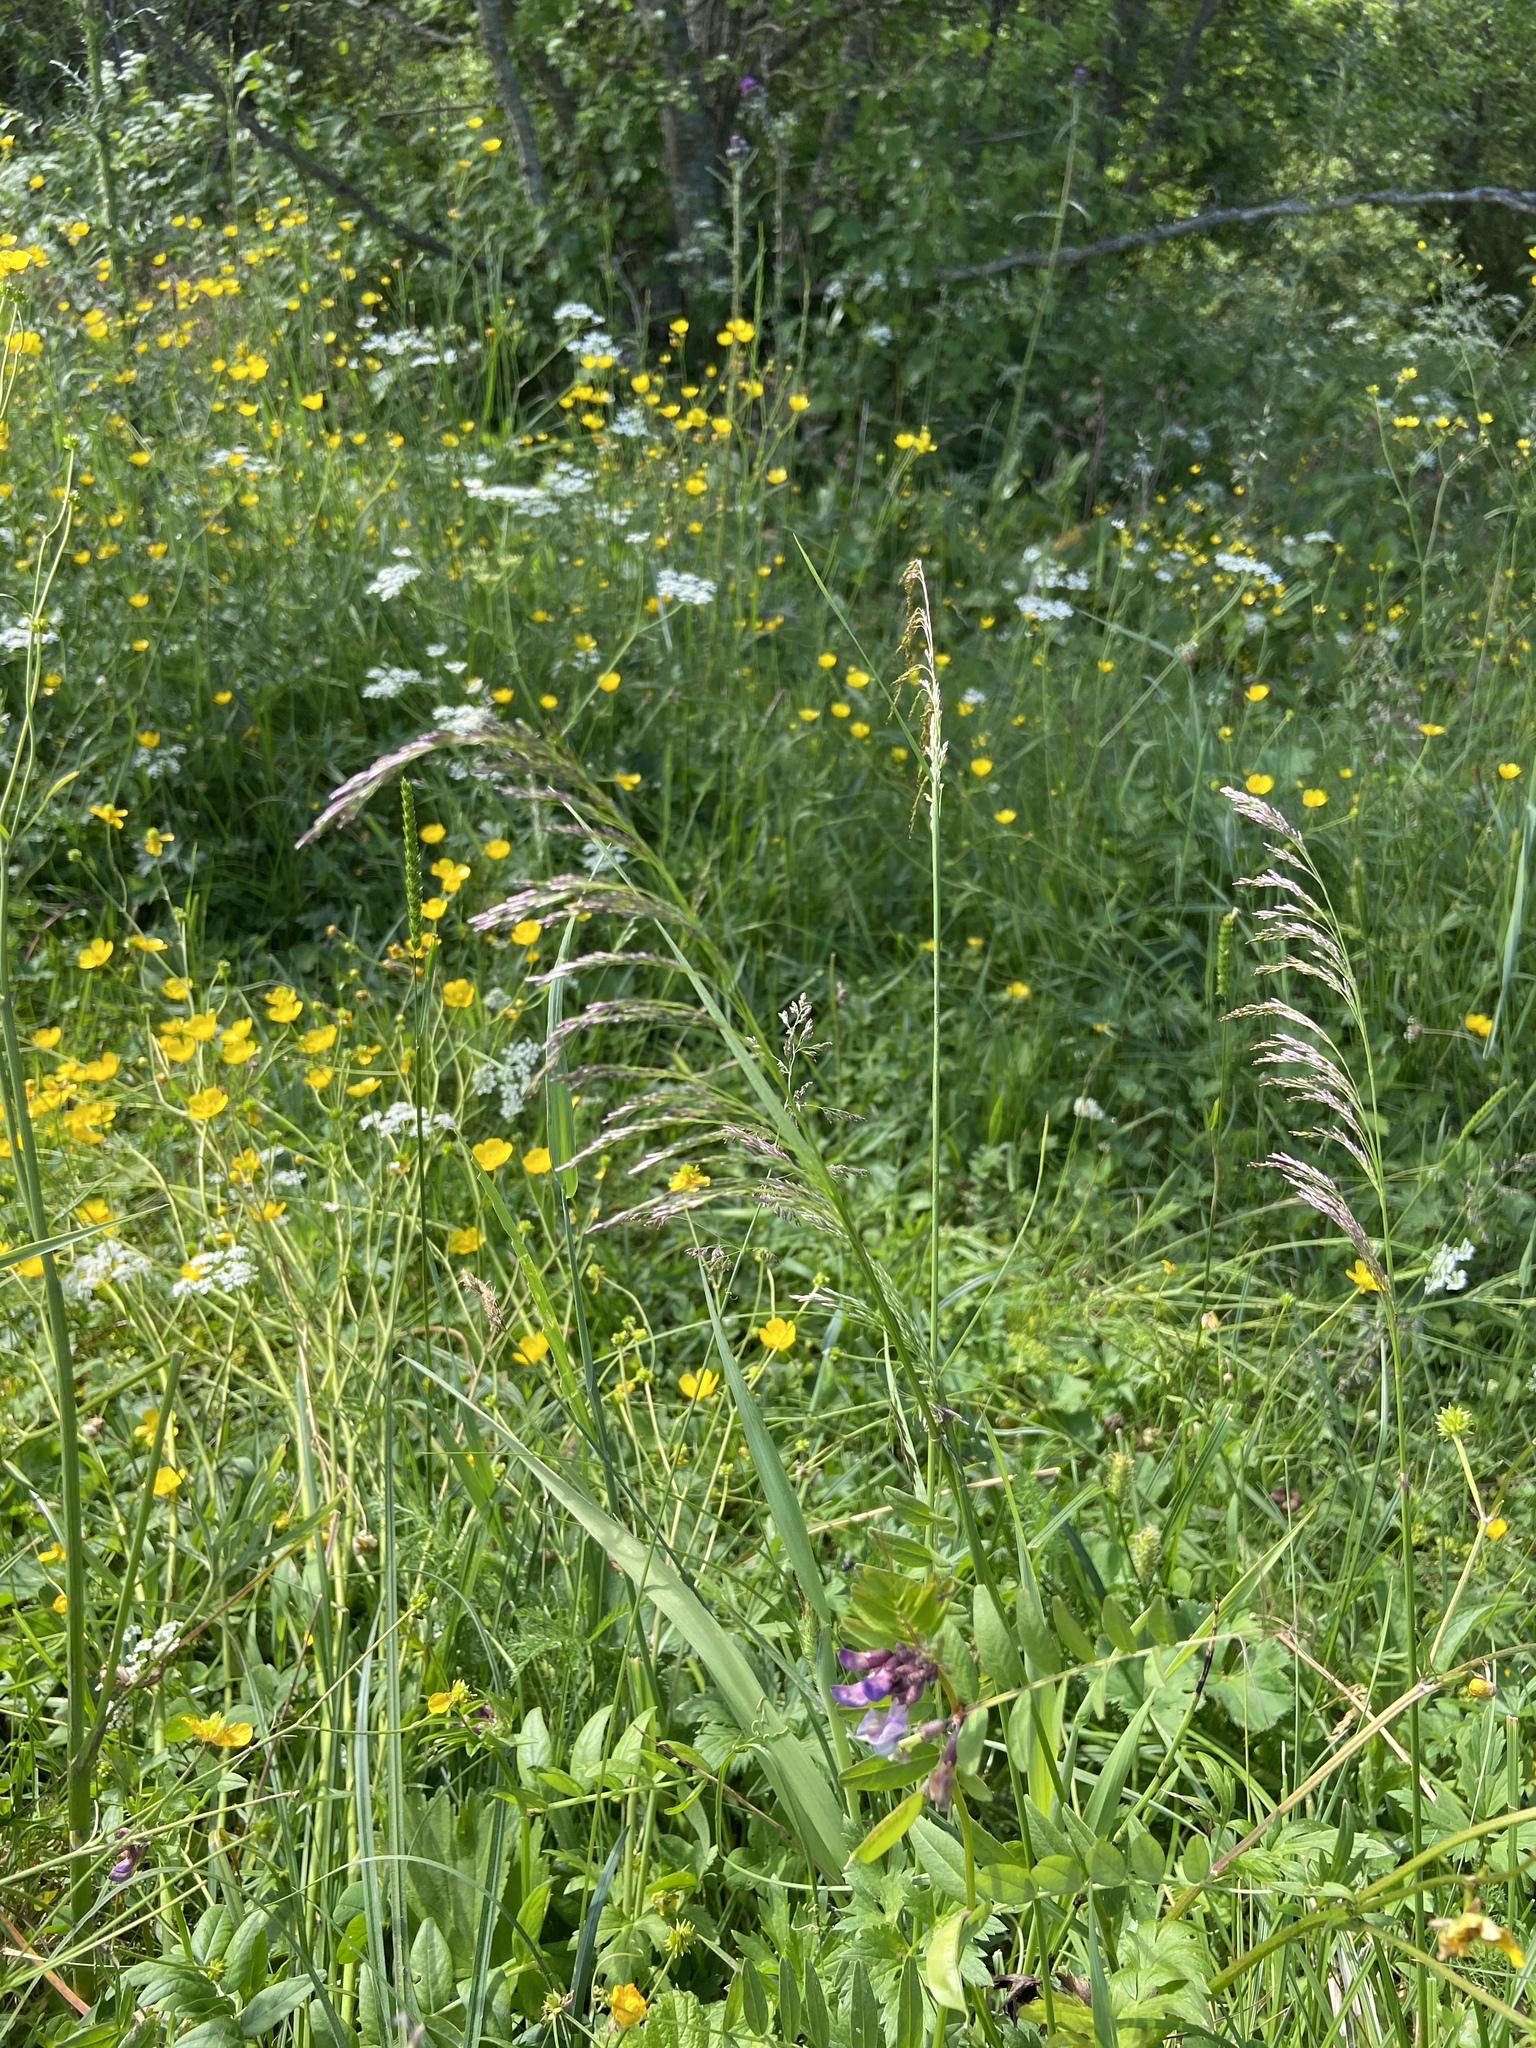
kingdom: Plantae
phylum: Tracheophyta
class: Liliopsida
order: Poales
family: Poaceae
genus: Deschampsia
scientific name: Deschampsia cespitosa
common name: Tufted hair-grass
